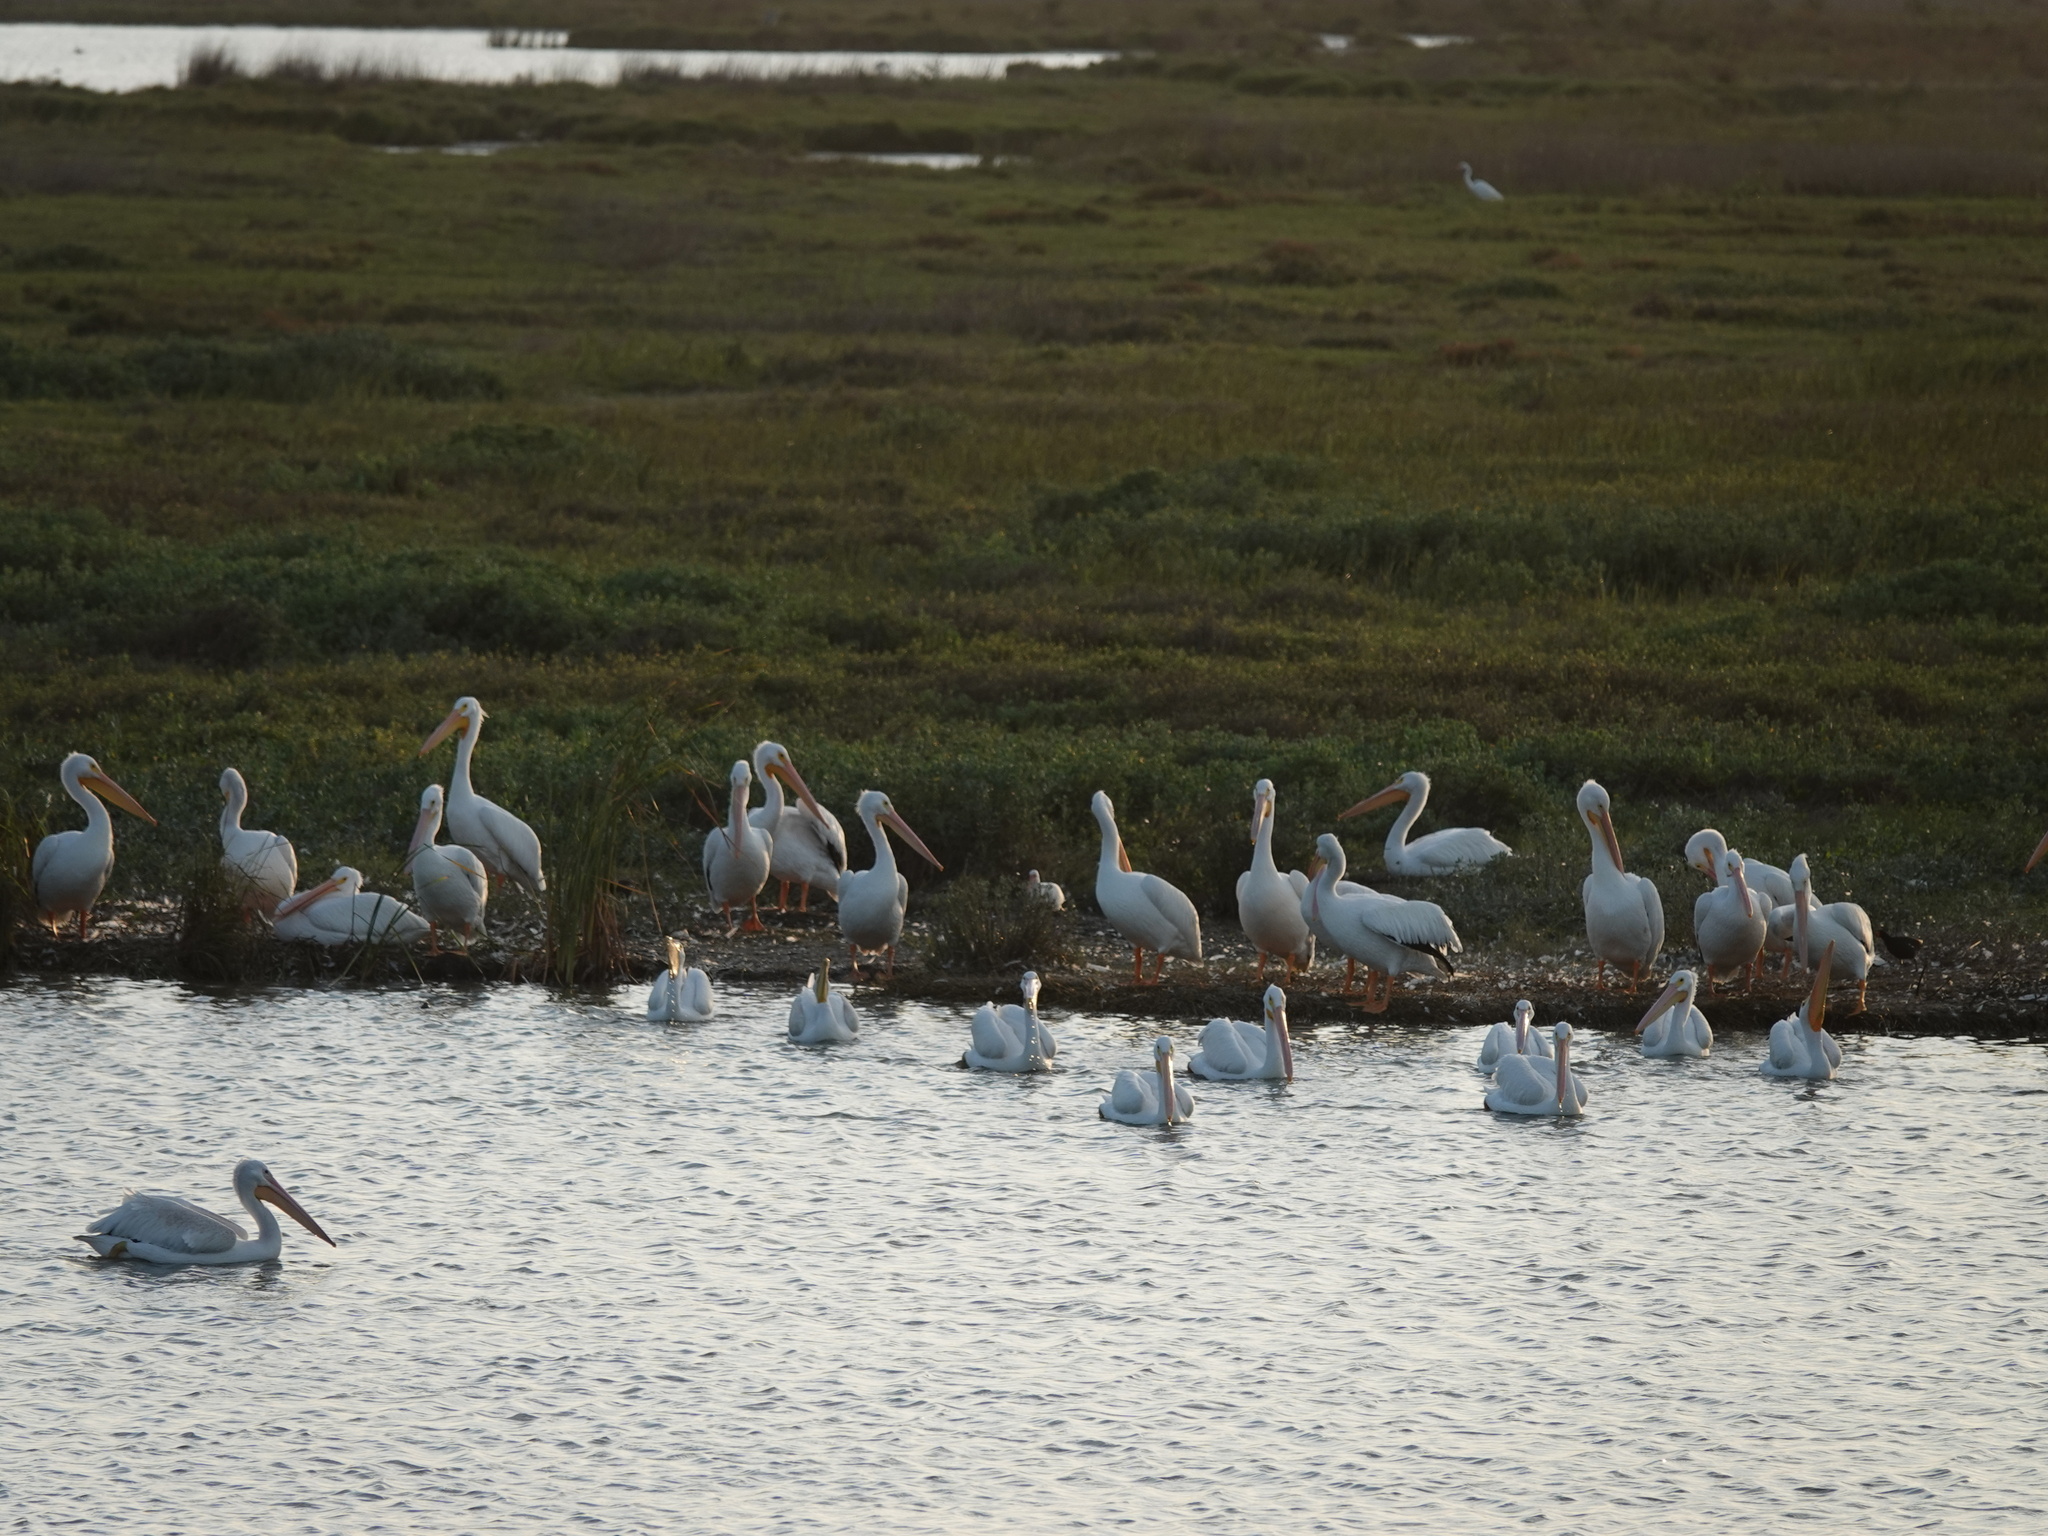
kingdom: Animalia
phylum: Chordata
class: Aves
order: Pelecaniformes
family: Pelecanidae
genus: Pelecanus
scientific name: Pelecanus erythrorhynchos
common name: American white pelican
